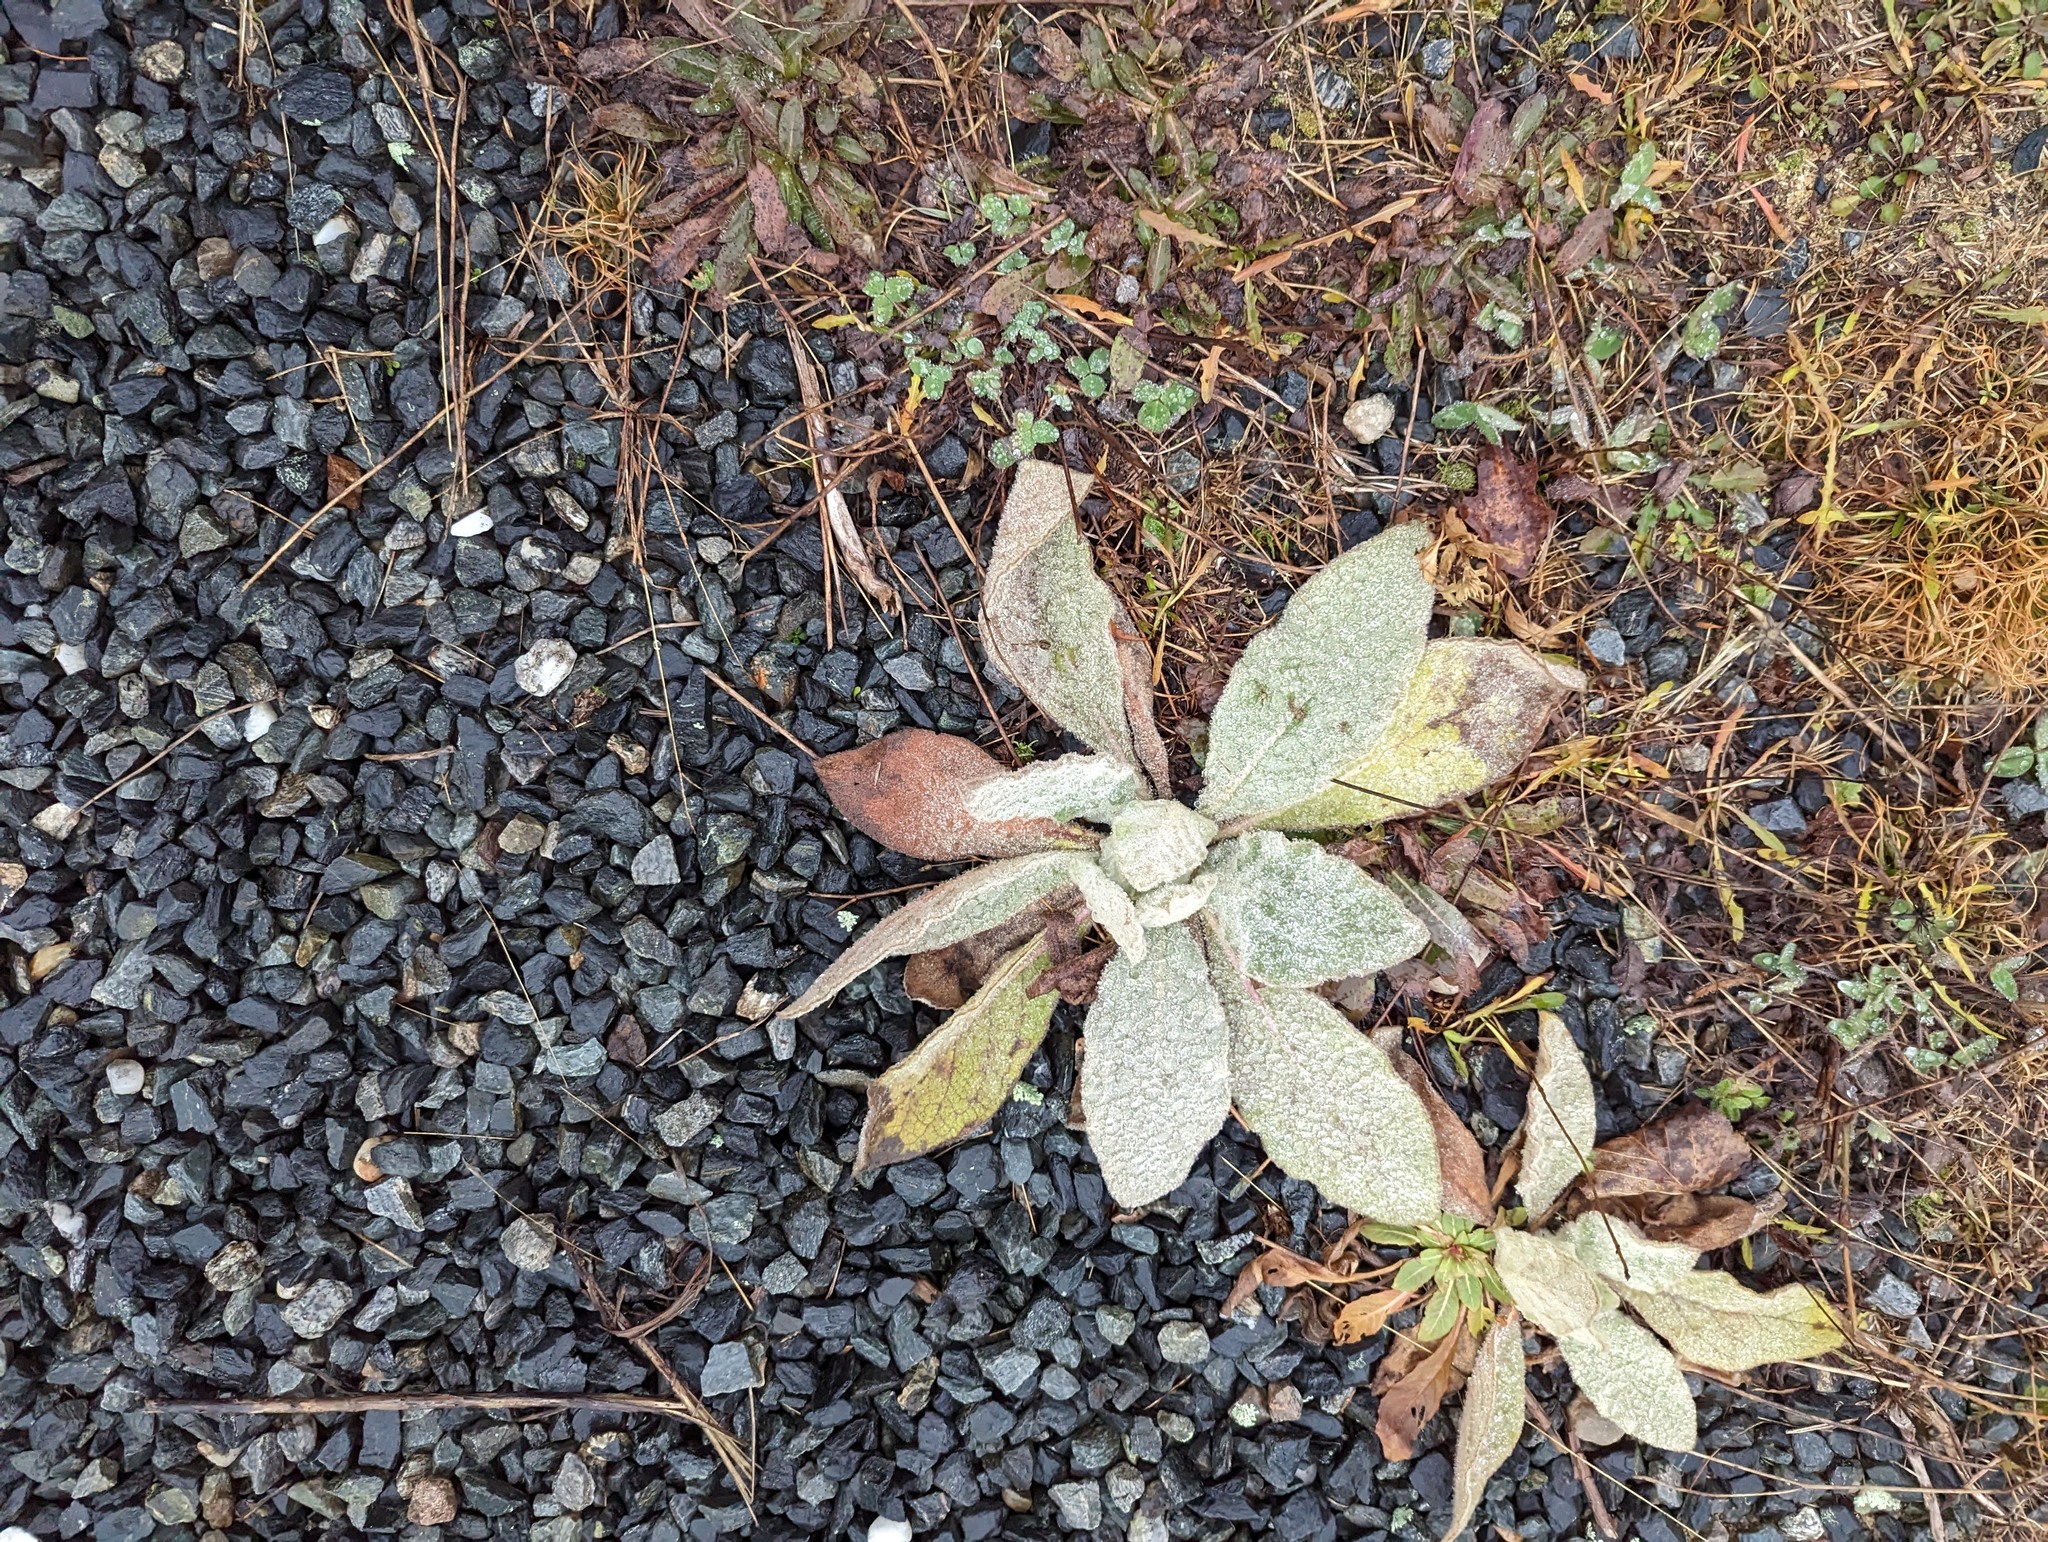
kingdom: Plantae
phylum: Tracheophyta
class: Magnoliopsida
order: Lamiales
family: Scrophulariaceae
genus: Verbascum
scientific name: Verbascum thapsus
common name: Common mullein
